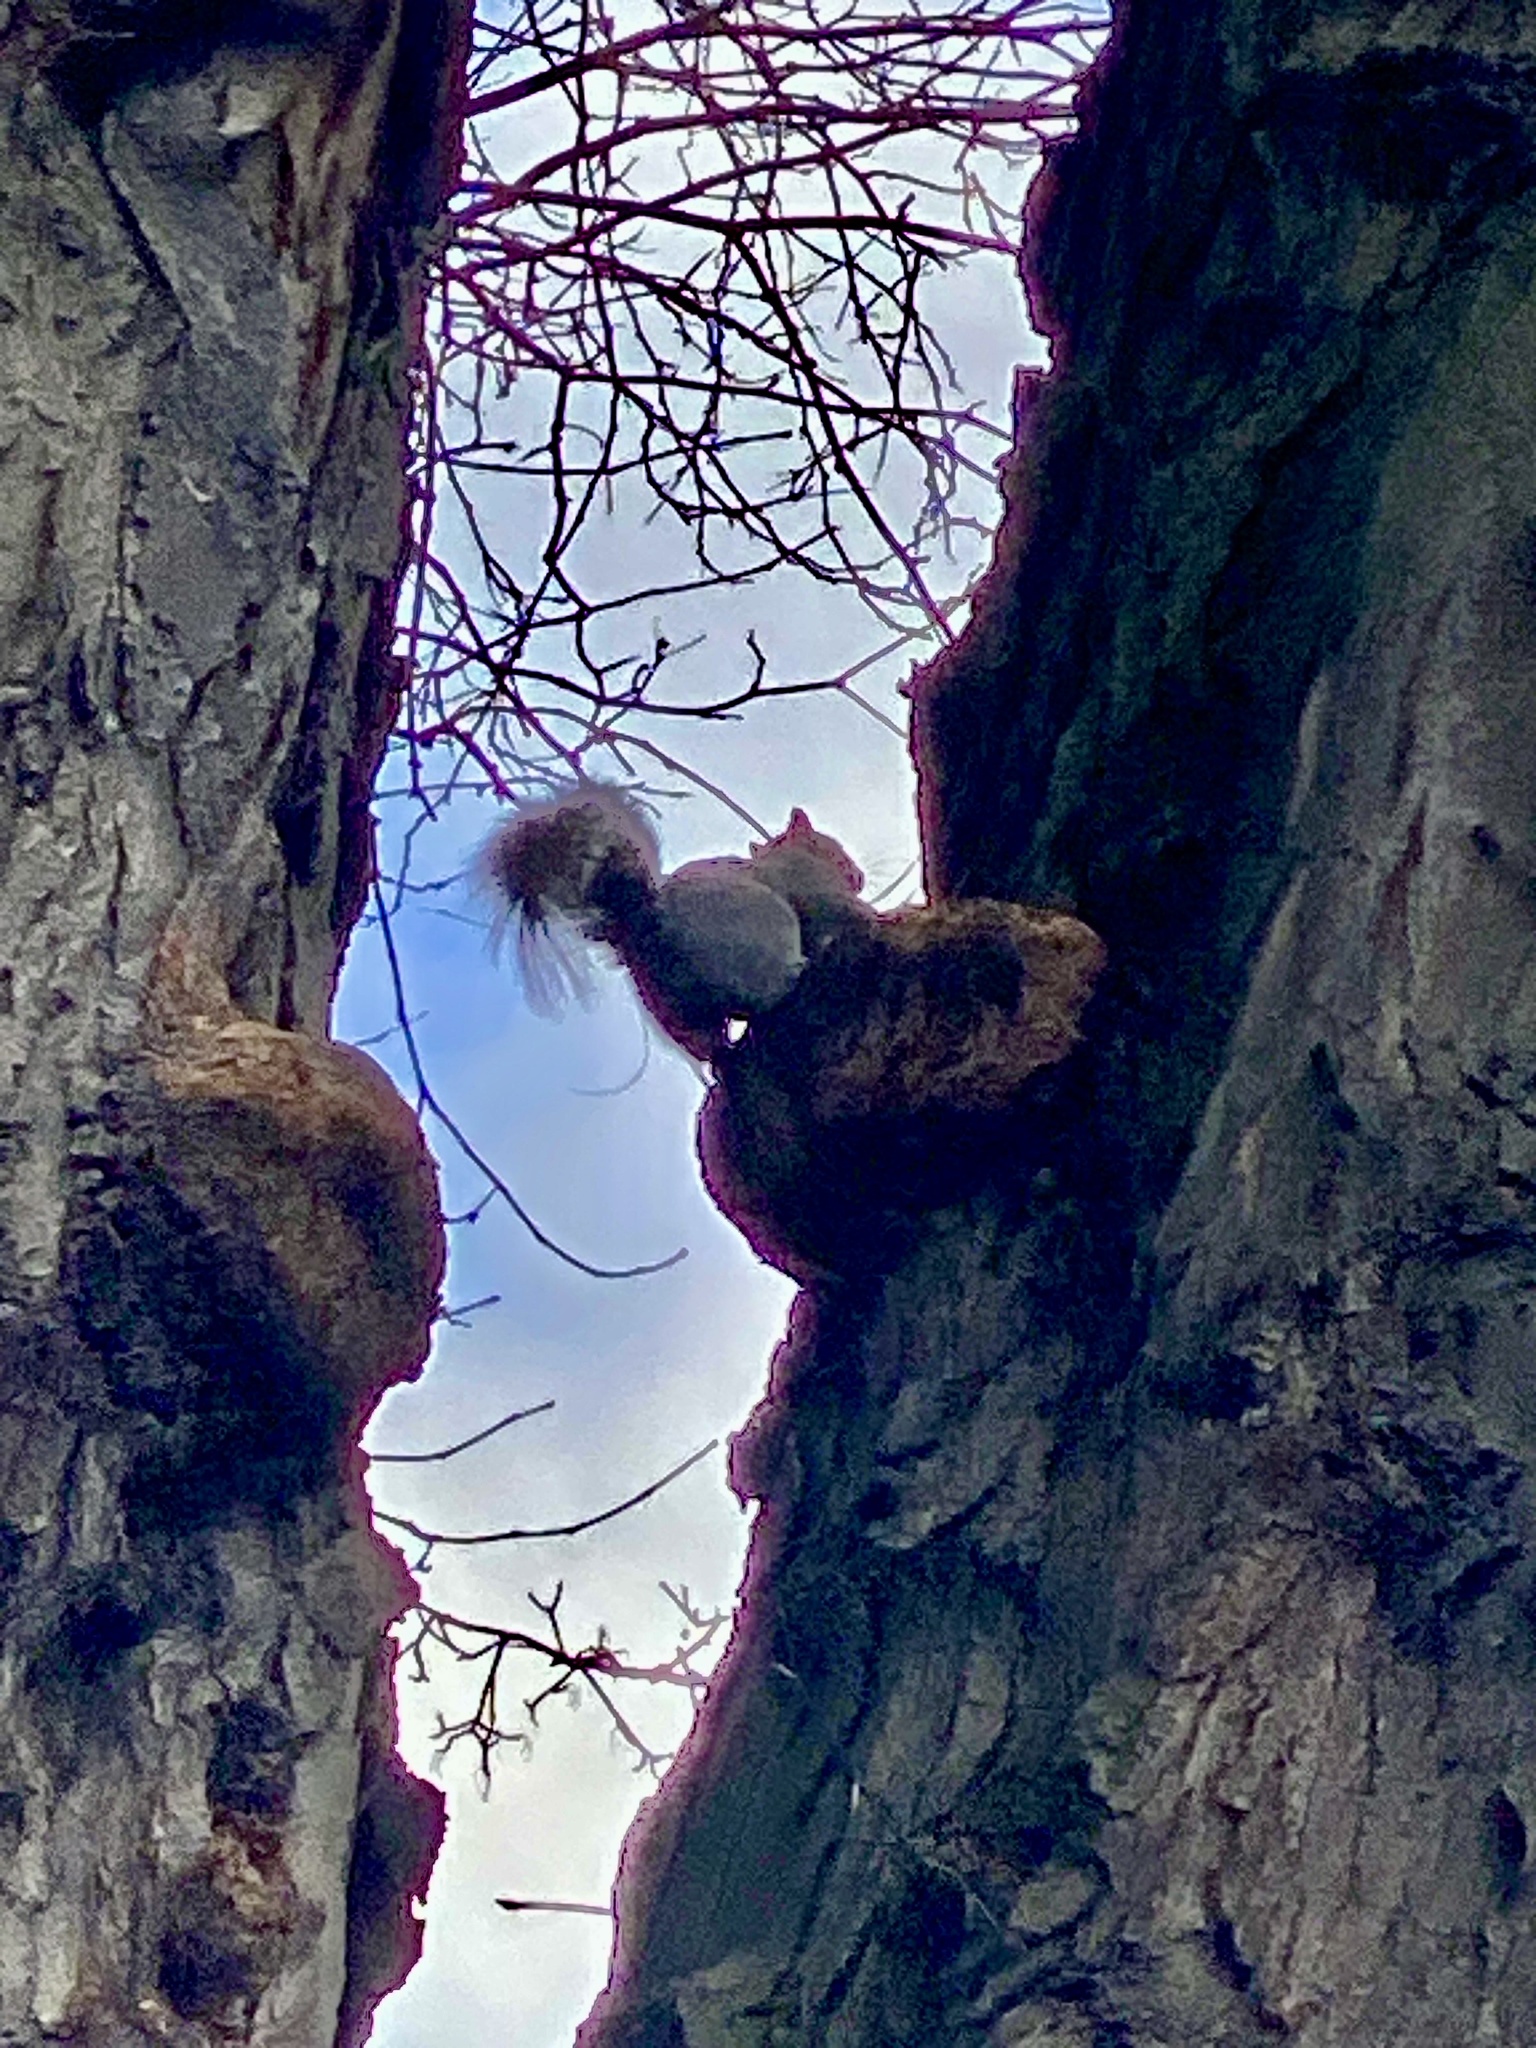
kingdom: Animalia
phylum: Chordata
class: Mammalia
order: Rodentia
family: Sciuridae
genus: Sciurus
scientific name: Sciurus carolinensis
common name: Eastern gray squirrel
